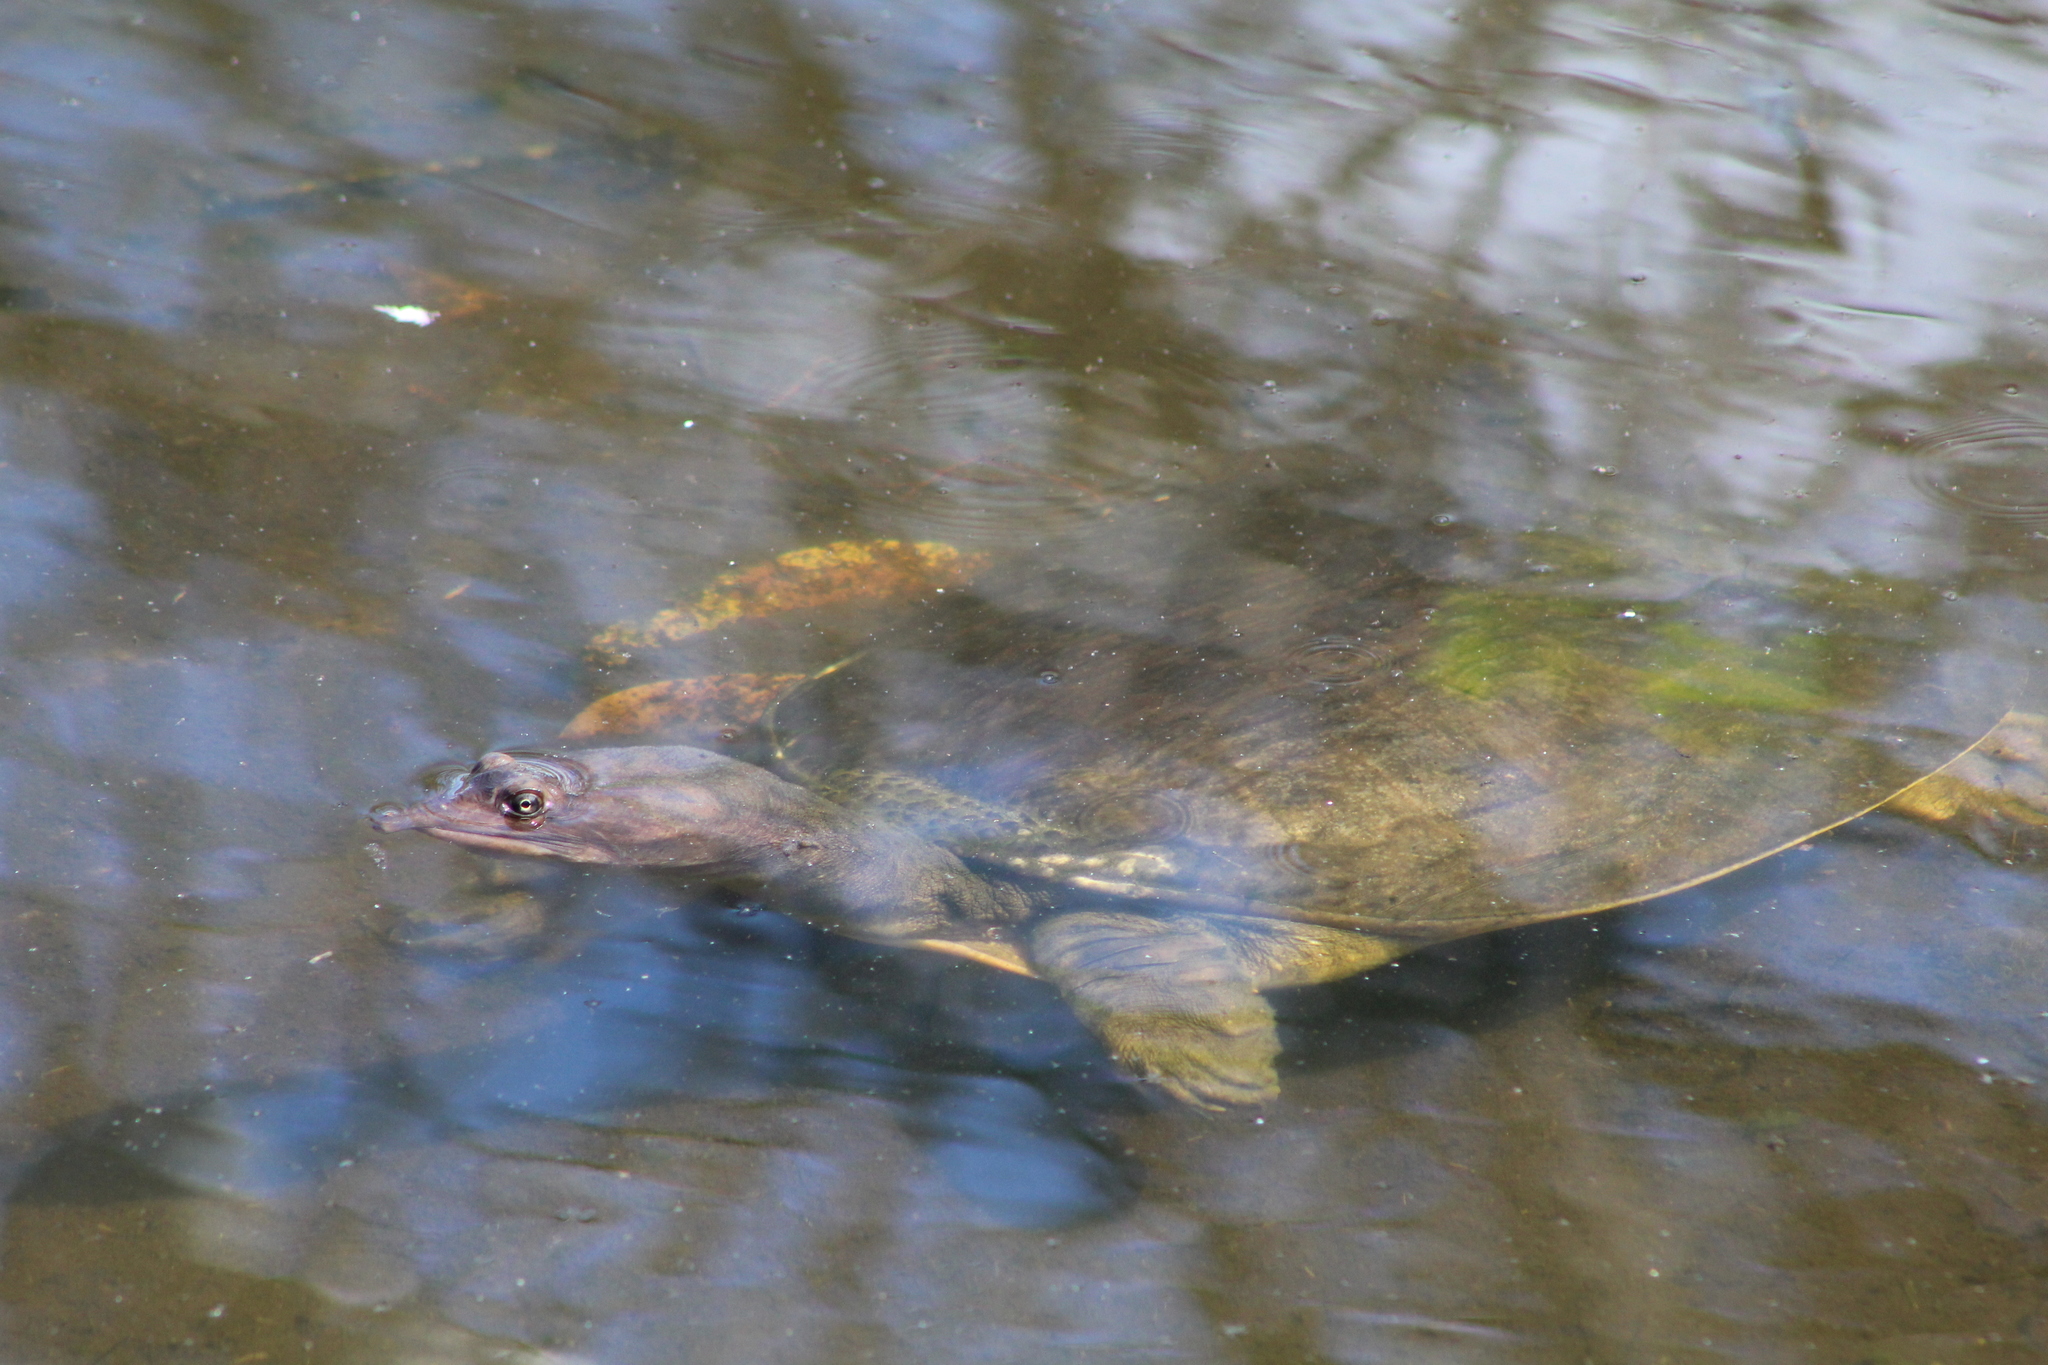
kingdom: Animalia
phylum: Chordata
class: Testudines
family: Trionychidae
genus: Apalone
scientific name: Apalone ferox
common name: Florida softshell turtle
